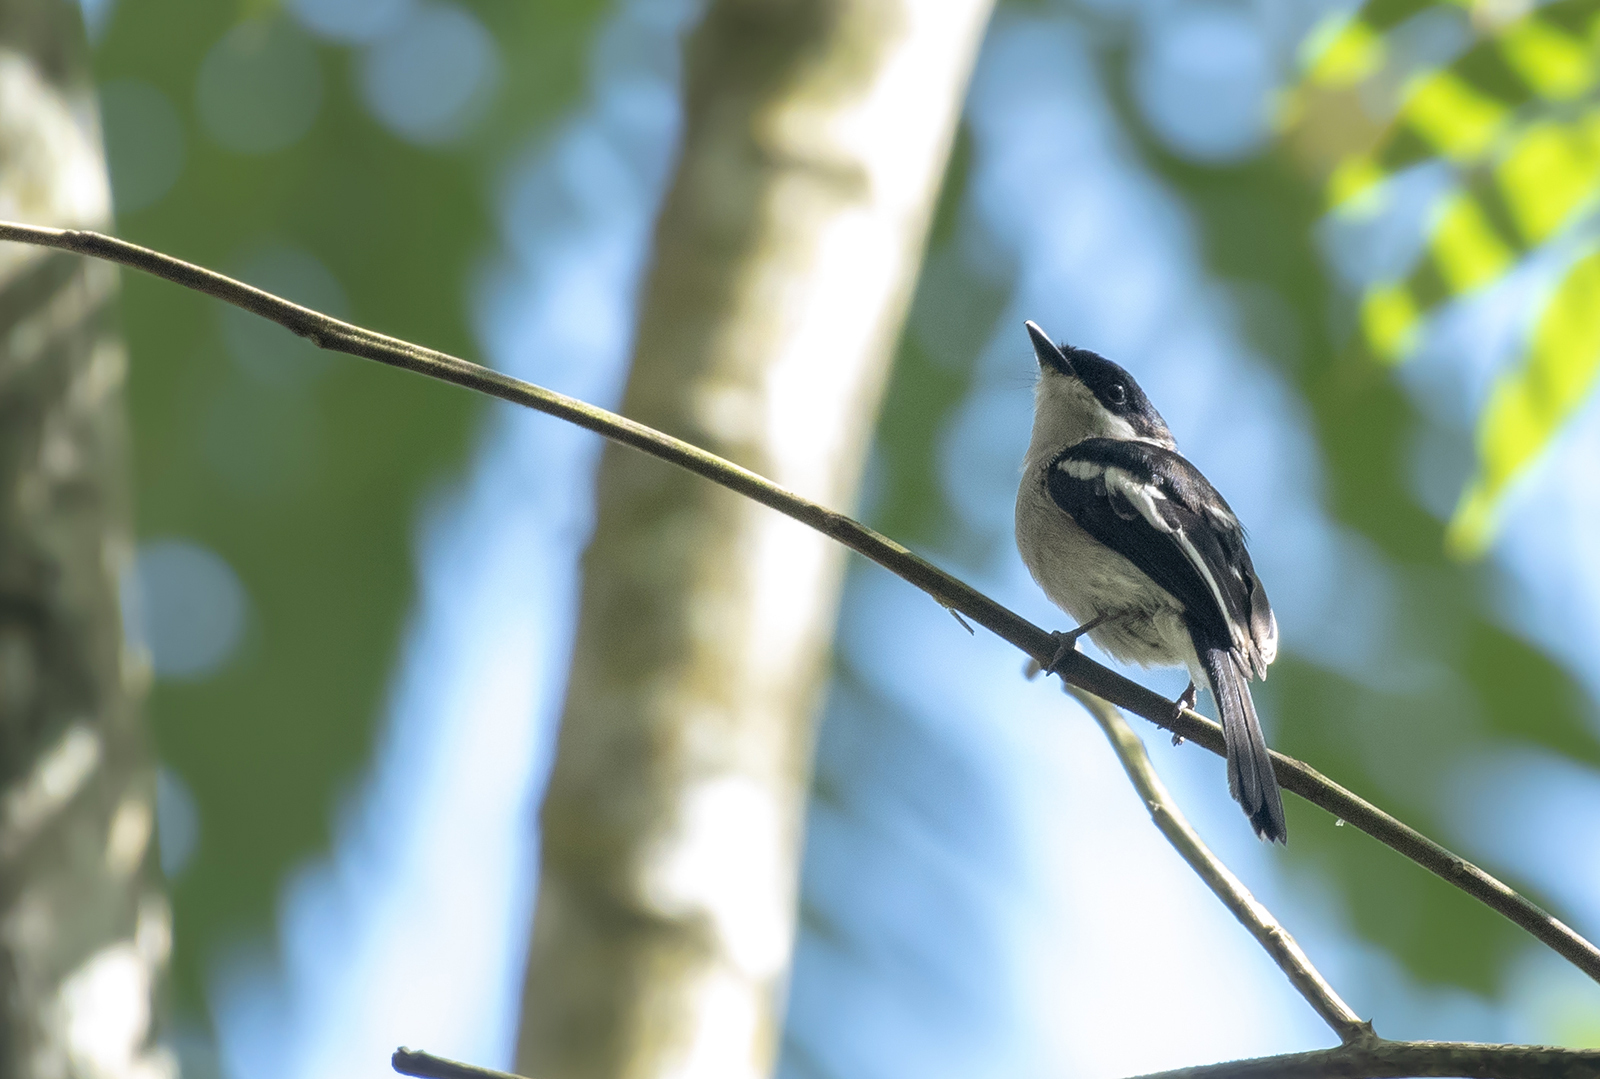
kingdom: Animalia
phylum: Chordata
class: Aves
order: Passeriformes
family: Tephrodornithidae
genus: Hemipus
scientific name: Hemipus picatus
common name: Bar-winged flycatcher-shrike
